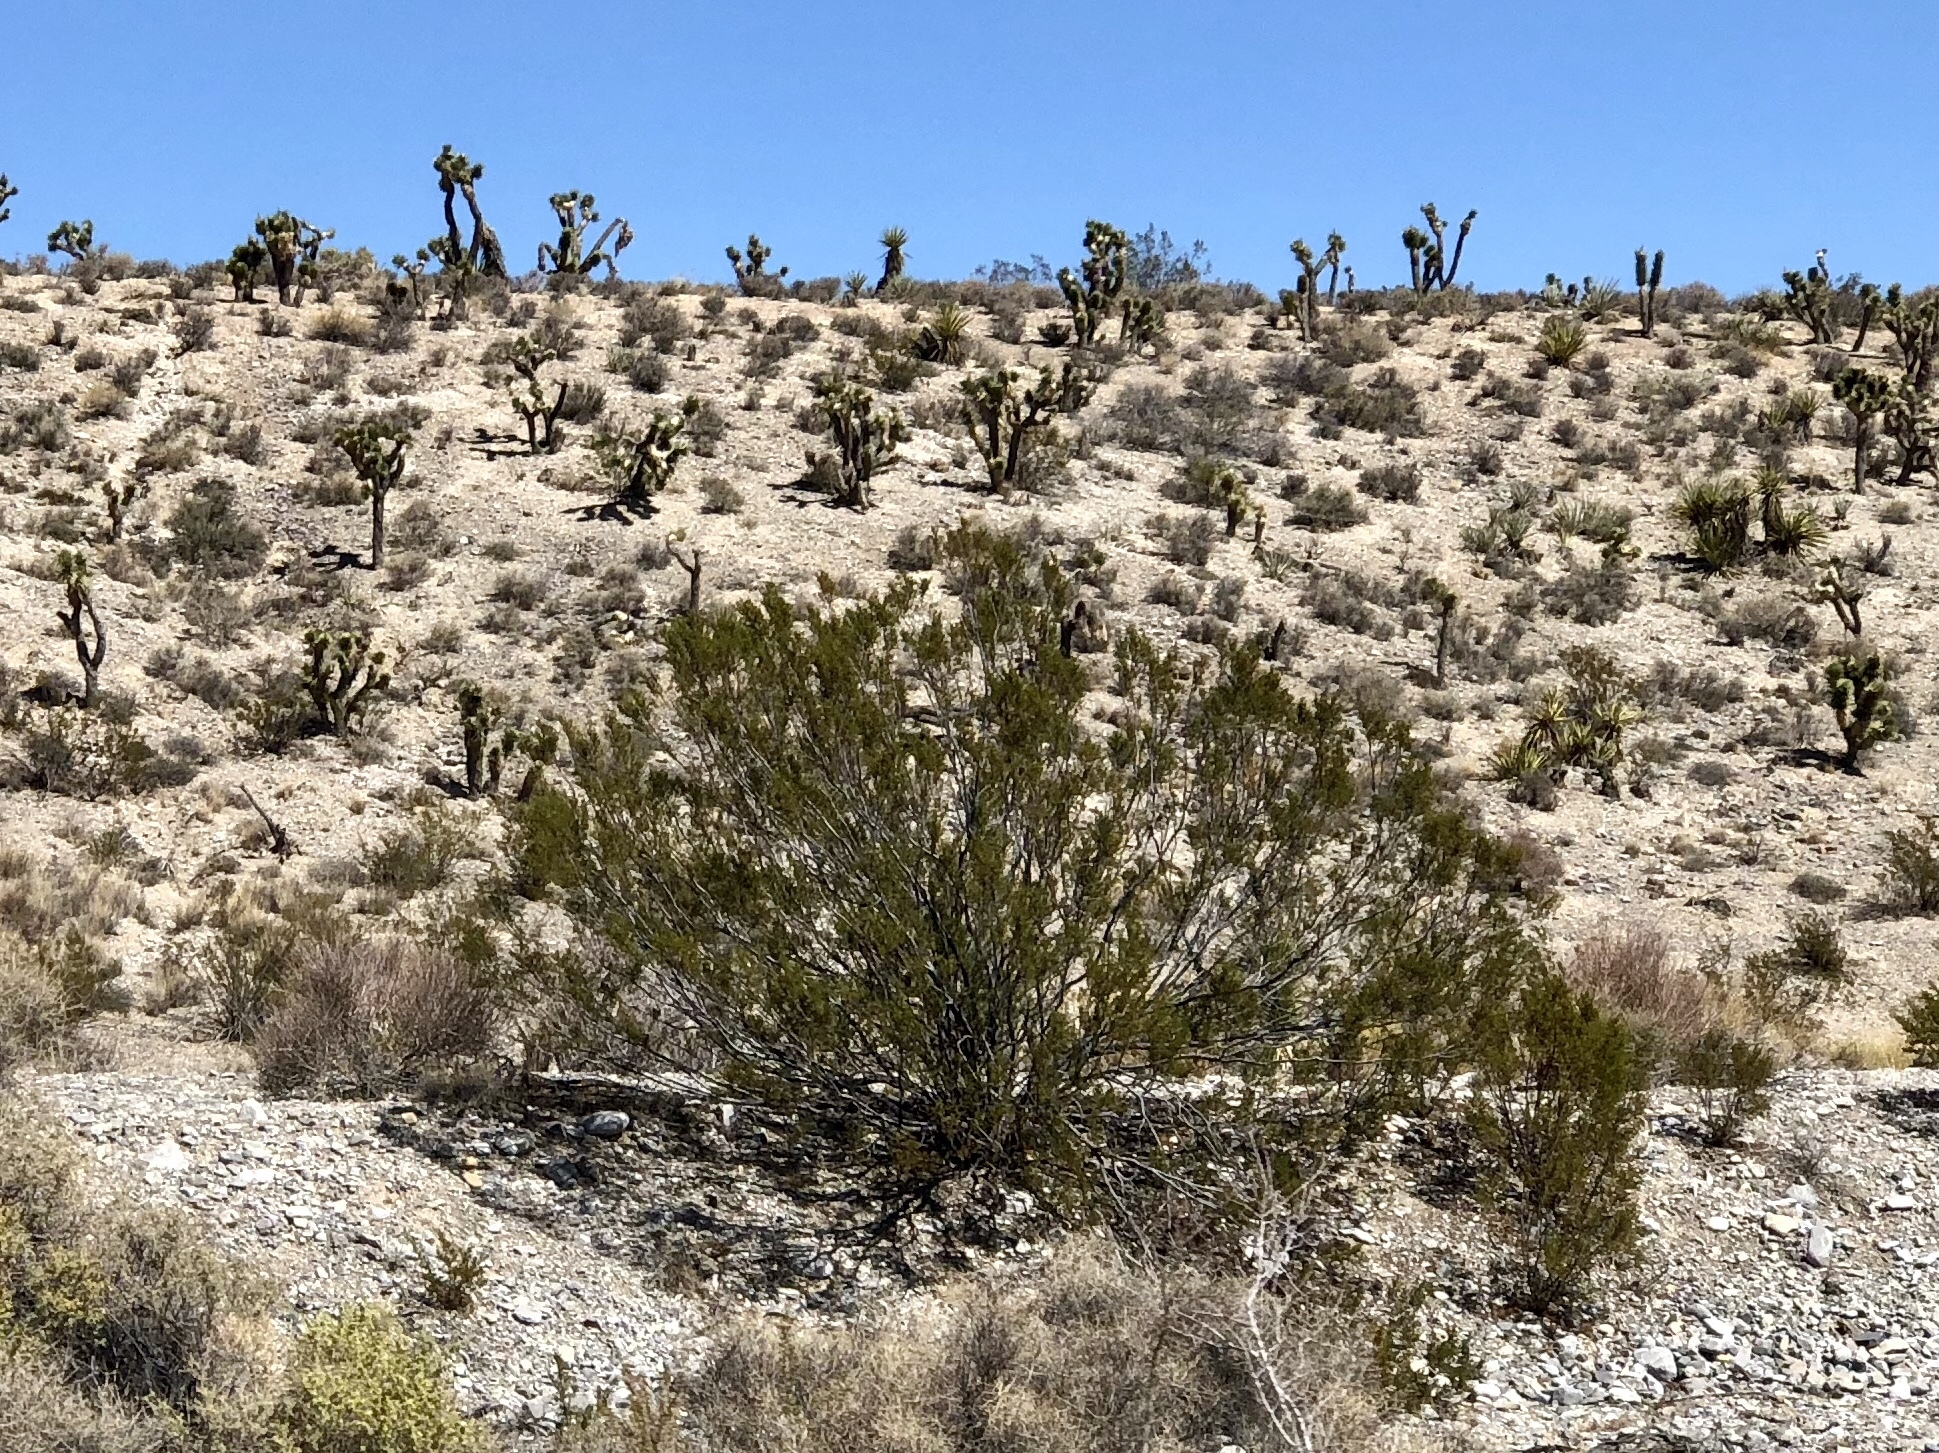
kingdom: Plantae
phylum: Tracheophyta
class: Magnoliopsida
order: Zygophyllales
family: Zygophyllaceae
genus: Larrea
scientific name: Larrea tridentata
